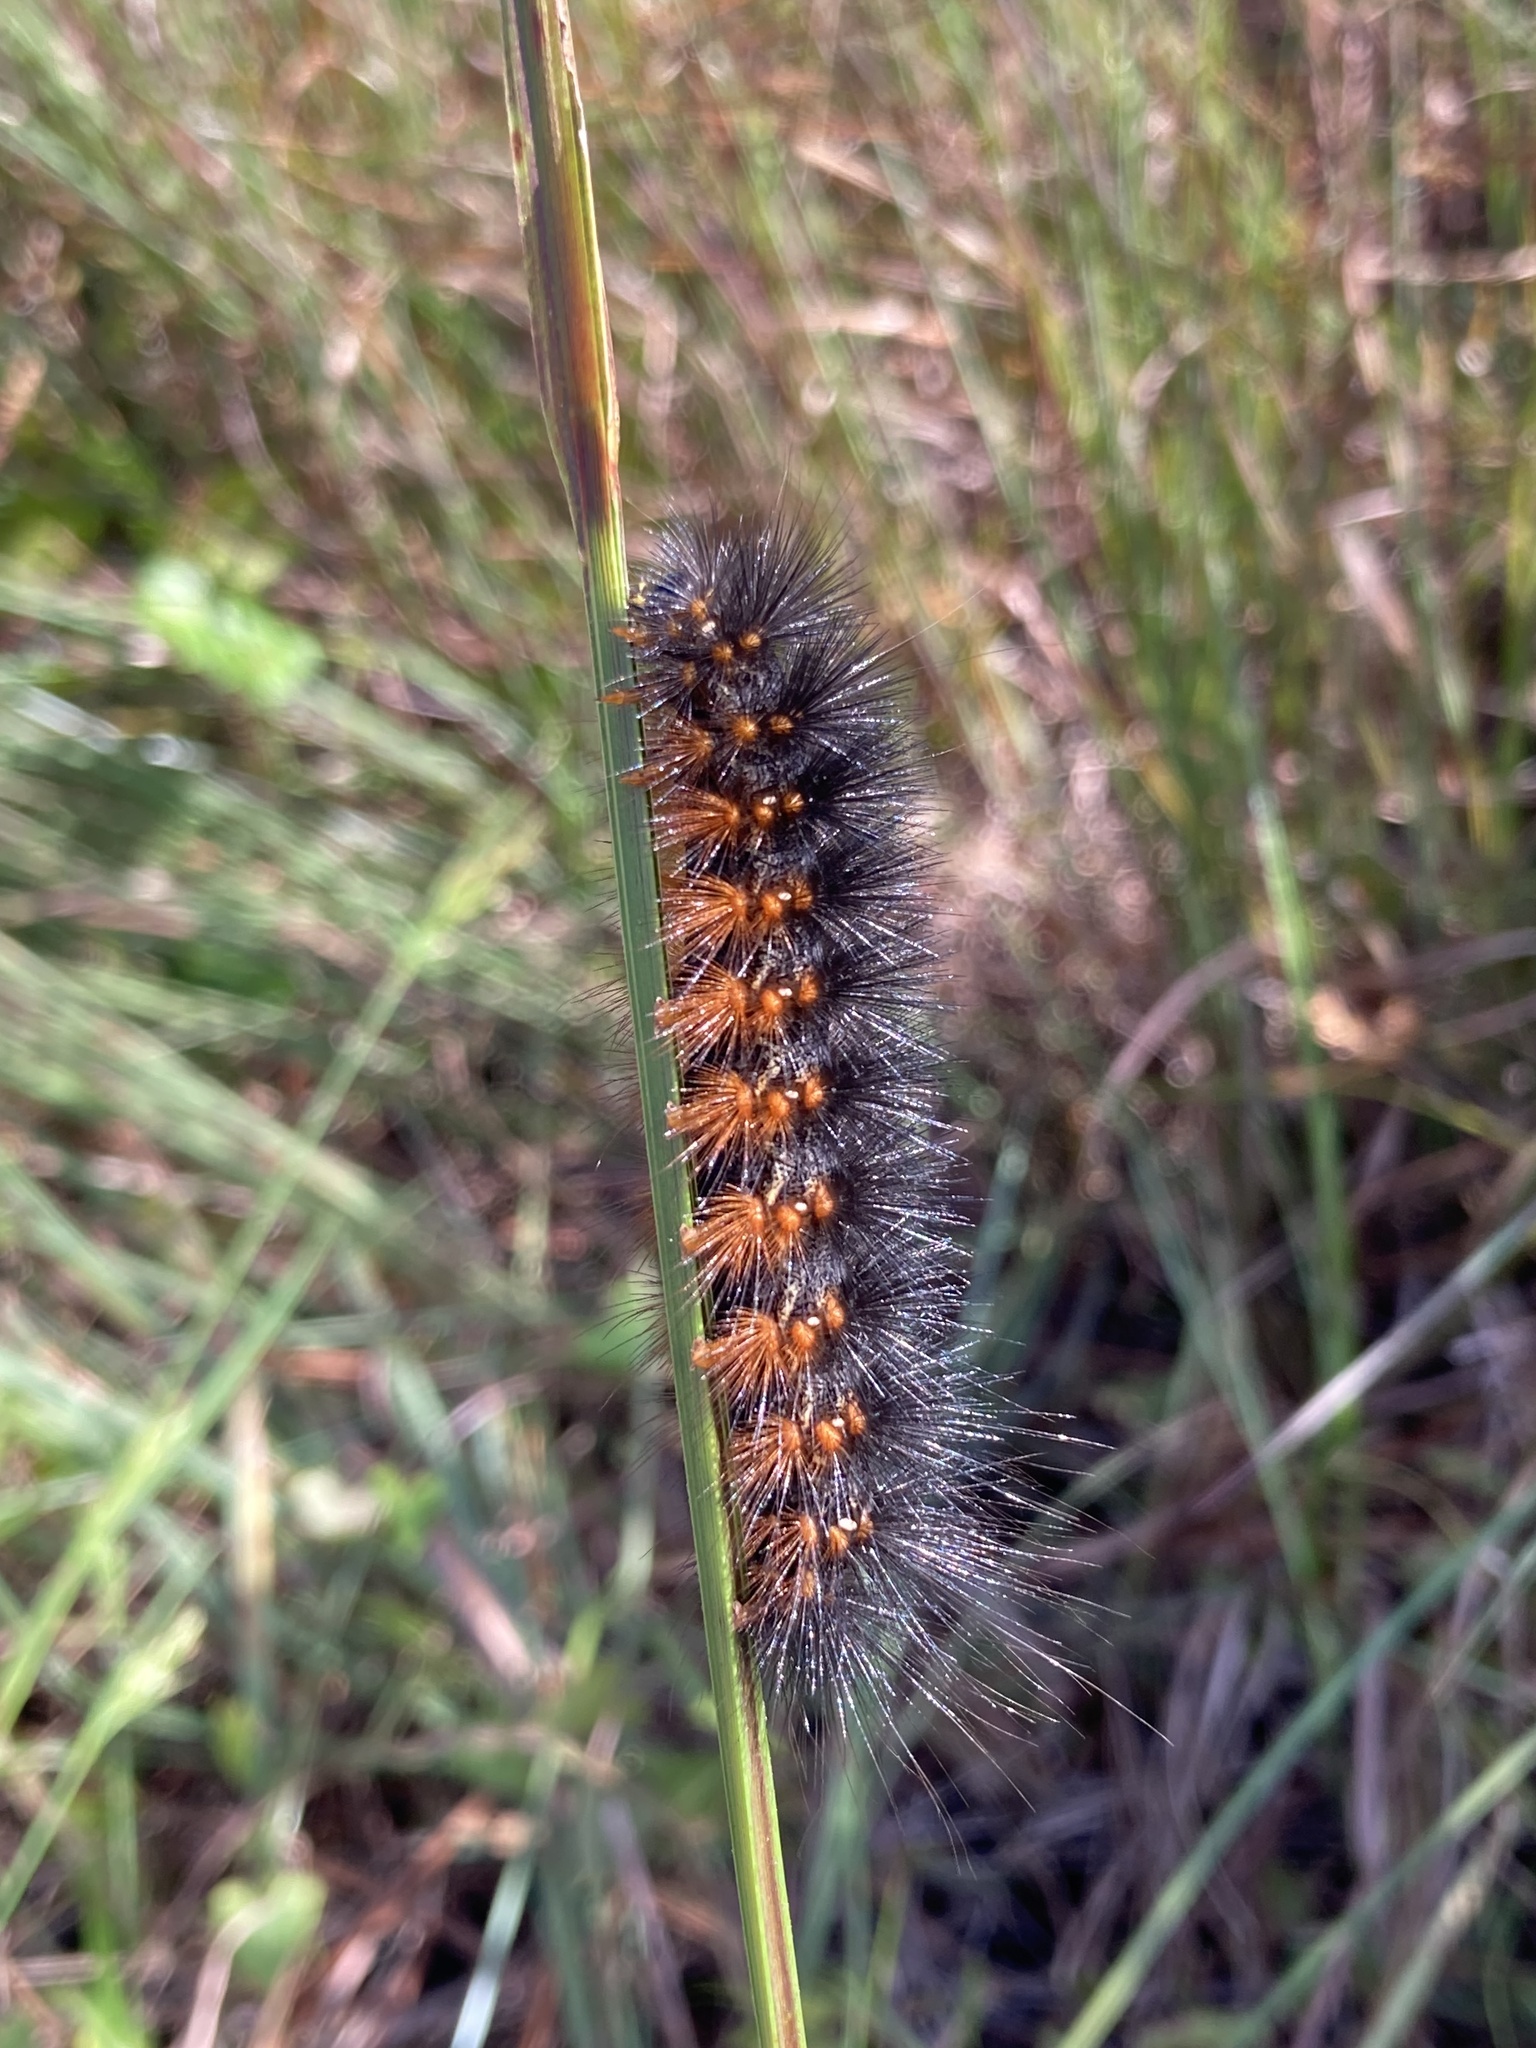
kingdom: Animalia
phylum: Arthropoda
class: Insecta
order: Lepidoptera
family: Erebidae
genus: Estigmene
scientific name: Estigmene acrea
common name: Salt marsh moth
